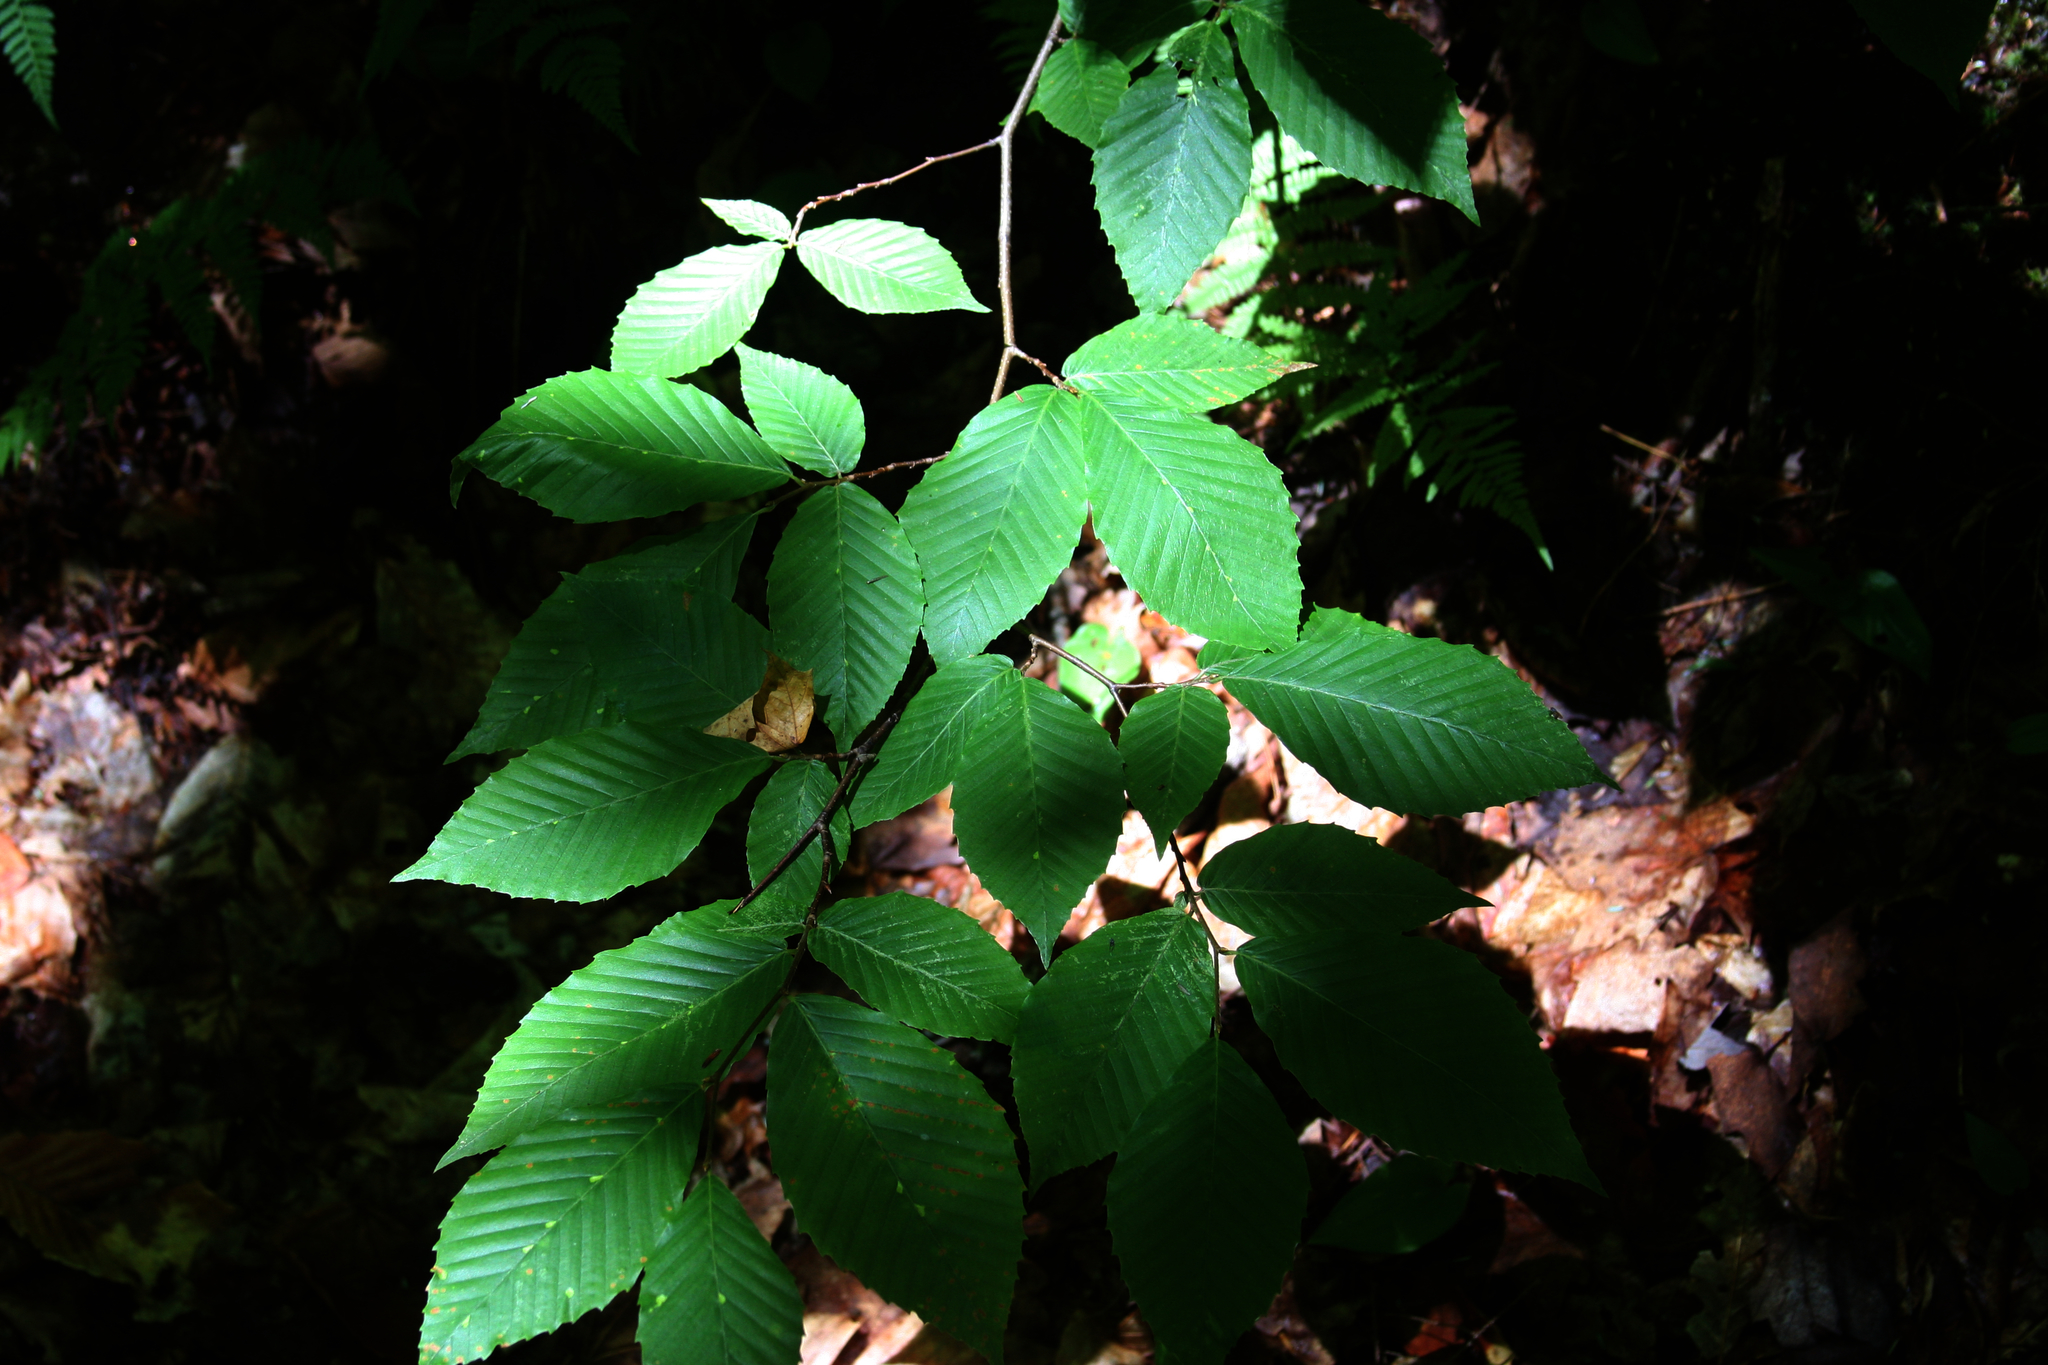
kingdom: Plantae
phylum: Tracheophyta
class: Magnoliopsida
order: Fagales
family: Fagaceae
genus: Fagus
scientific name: Fagus grandifolia
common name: American beech
